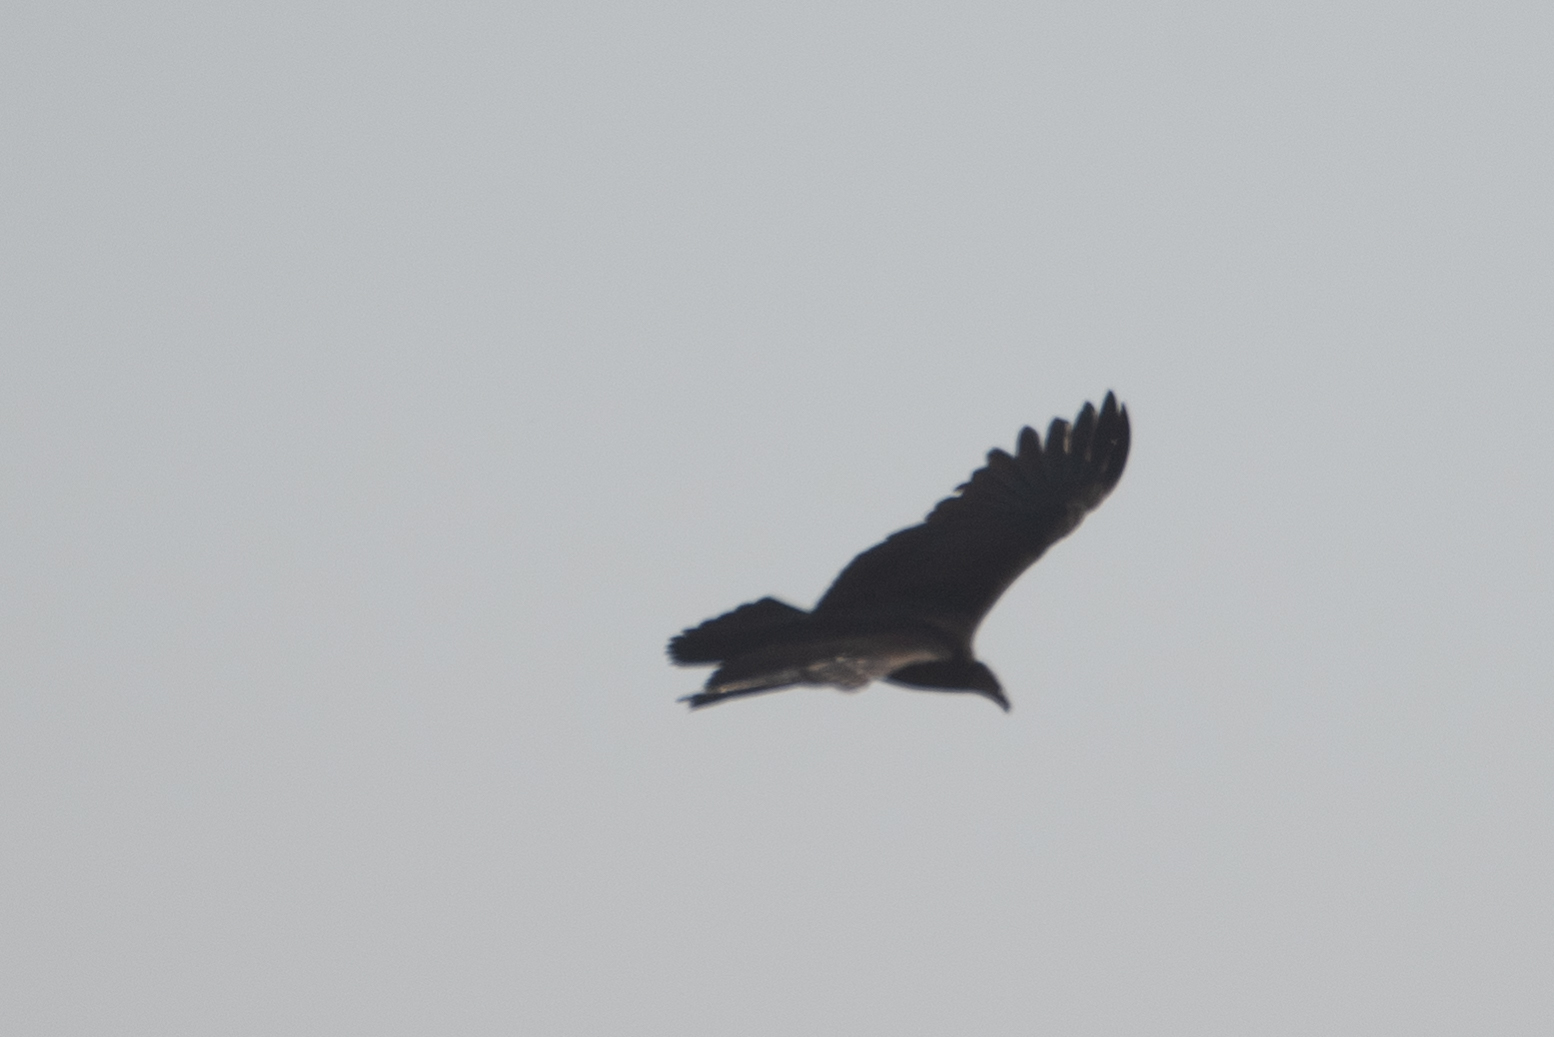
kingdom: Animalia
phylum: Chordata
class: Aves
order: Accipitriformes
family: Cathartidae
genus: Cathartes
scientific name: Cathartes aura
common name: Turkey vulture
